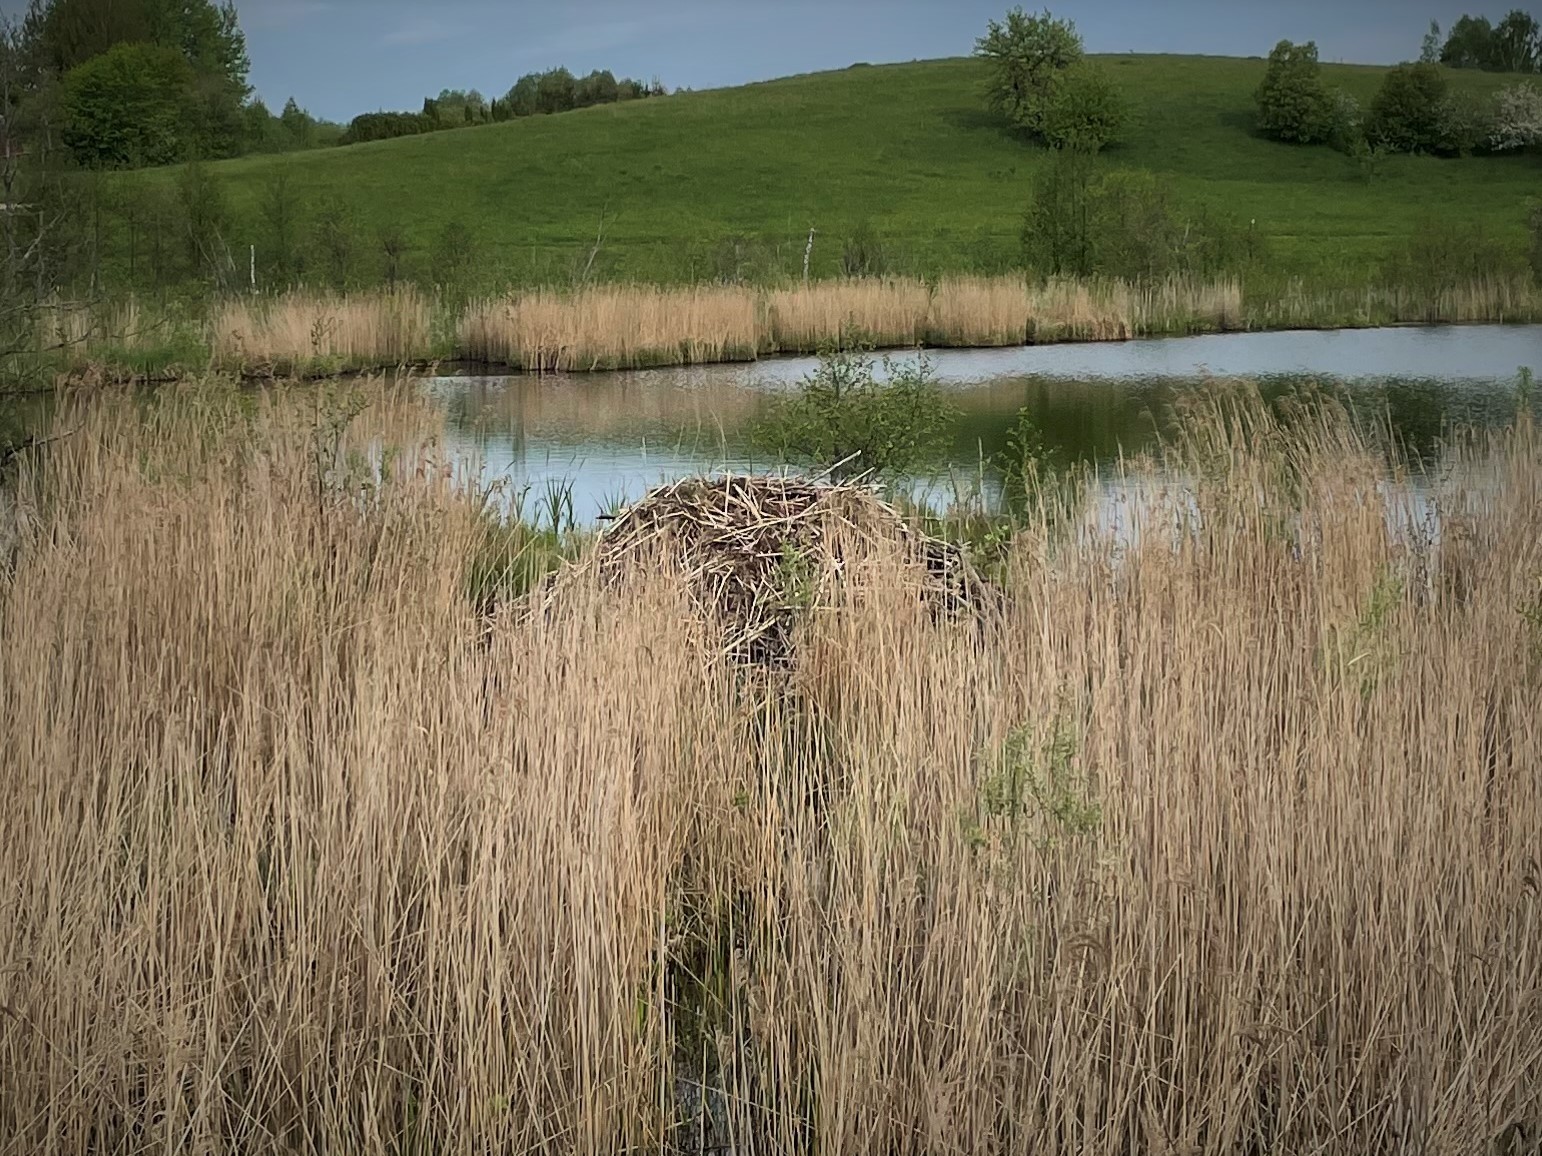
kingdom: Animalia
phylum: Chordata
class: Mammalia
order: Rodentia
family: Castoridae
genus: Castor
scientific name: Castor fiber
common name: Eurasian beaver
